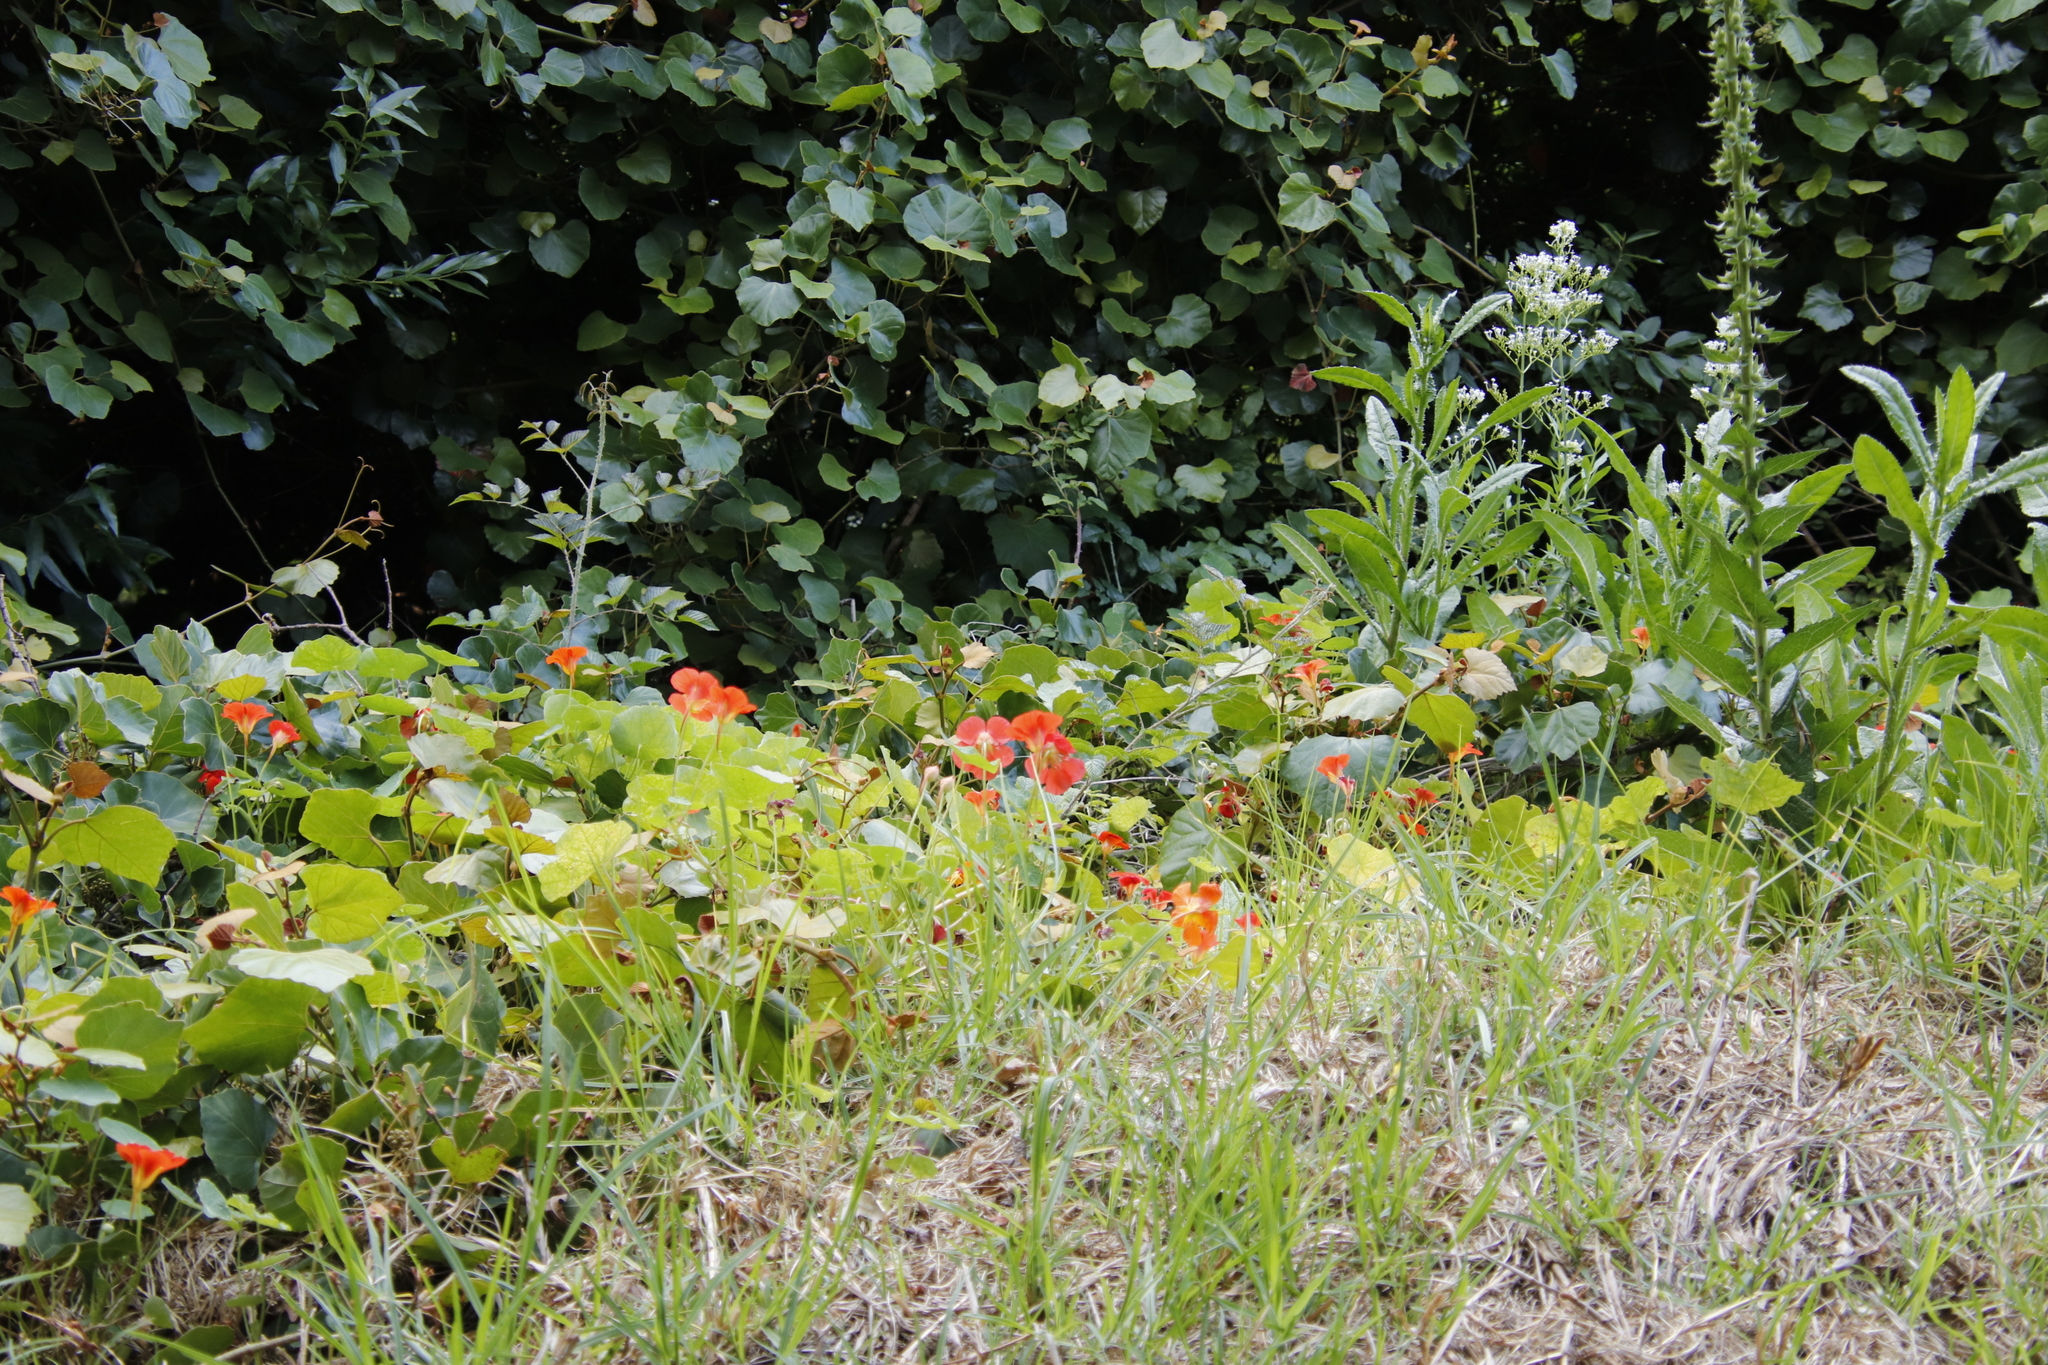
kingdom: Plantae
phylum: Tracheophyta
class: Magnoliopsida
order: Brassicales
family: Tropaeolaceae
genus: Tropaeolum
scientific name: Tropaeolum majus
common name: Nasturtium
